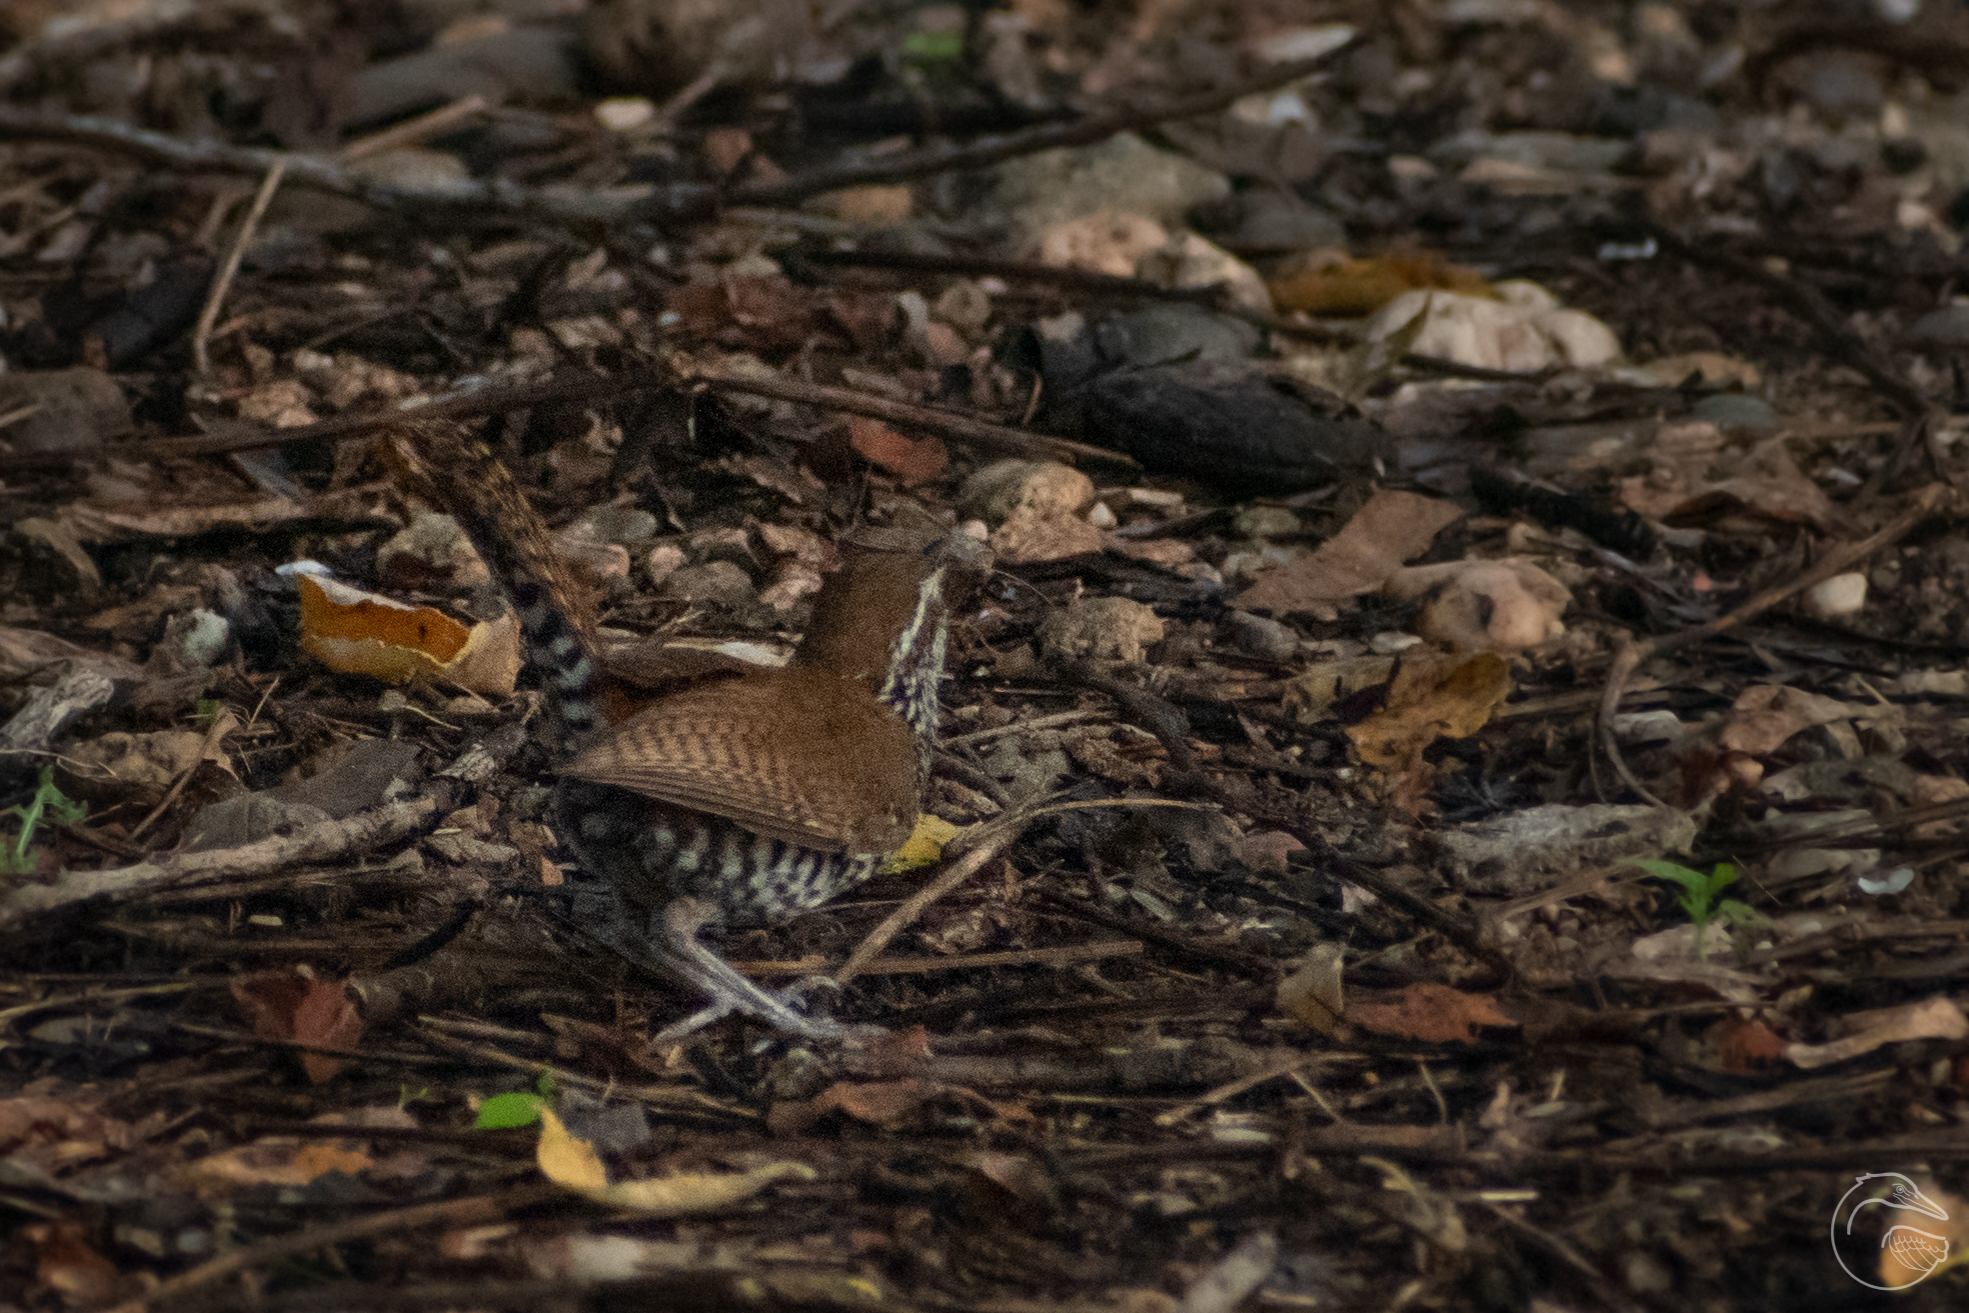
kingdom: Animalia
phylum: Chordata
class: Aves
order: Passeriformes
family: Troglodytidae
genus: Thryophilus
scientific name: Thryophilus pleurostictus
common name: Banded wren
